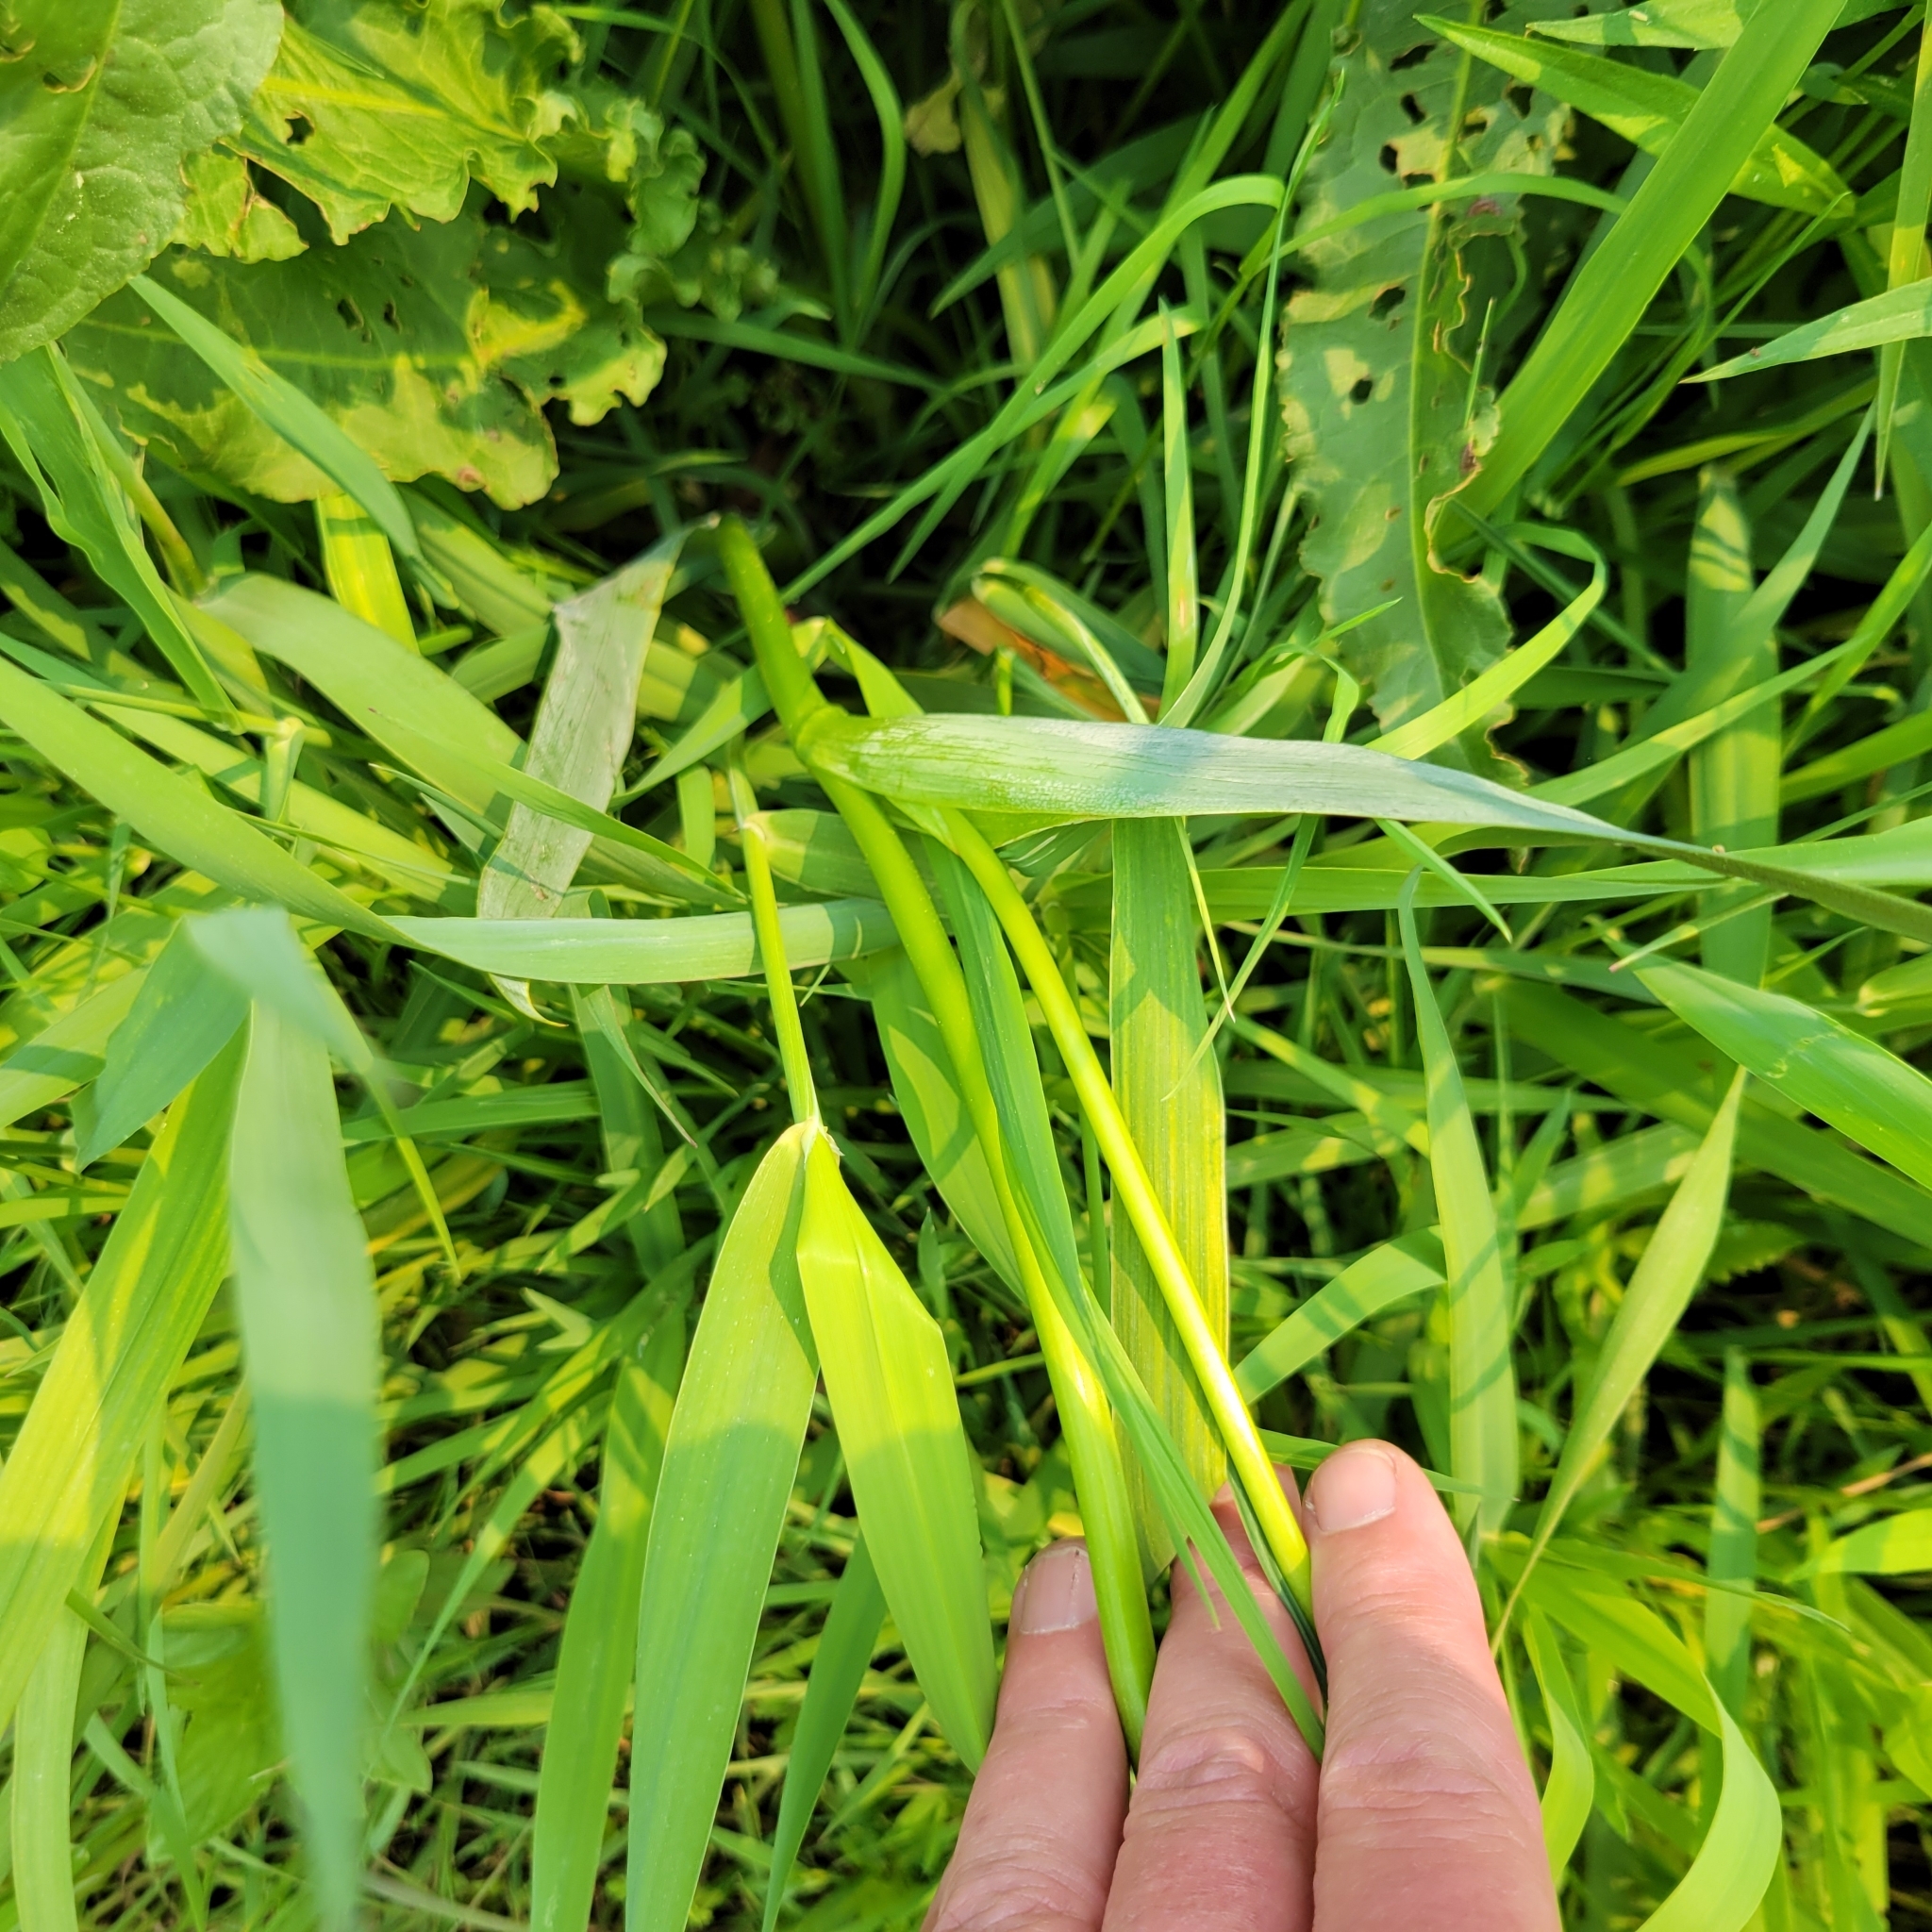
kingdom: Plantae
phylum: Tracheophyta
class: Liliopsida
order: Asparagales
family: Iridaceae
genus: Iris
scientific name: Iris pseudacorus
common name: Yellow flag
